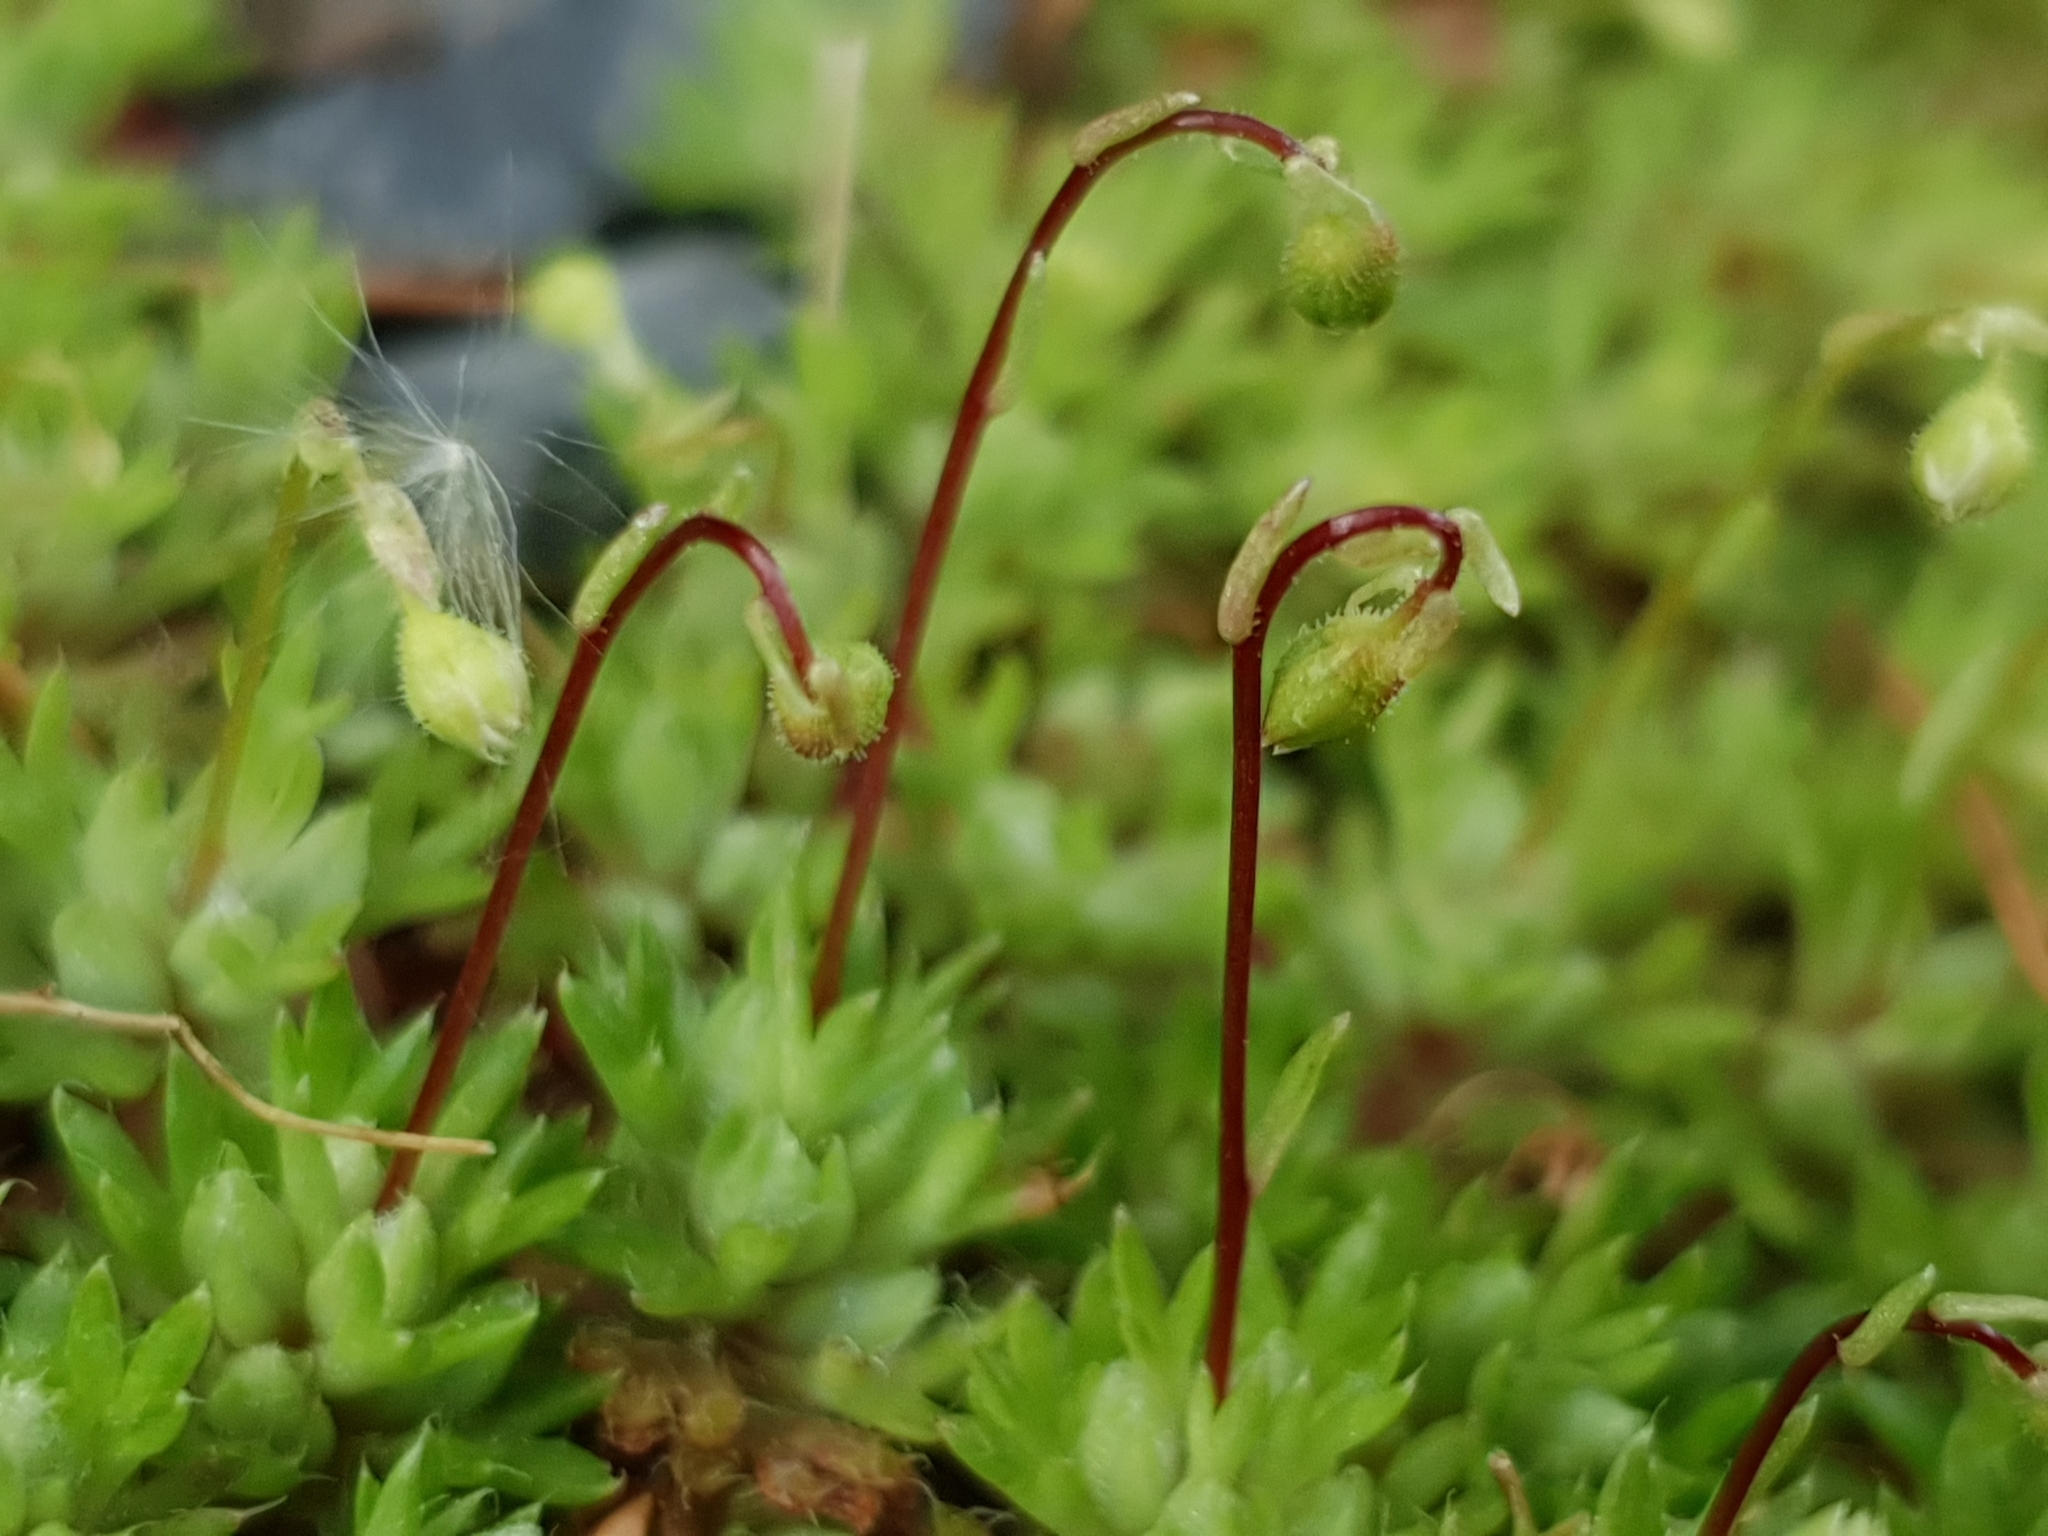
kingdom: Plantae
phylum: Tracheophyta
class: Magnoliopsida
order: Saxifragales
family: Saxifragaceae
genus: Saxifraga
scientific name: Saxifraga trabutiana
